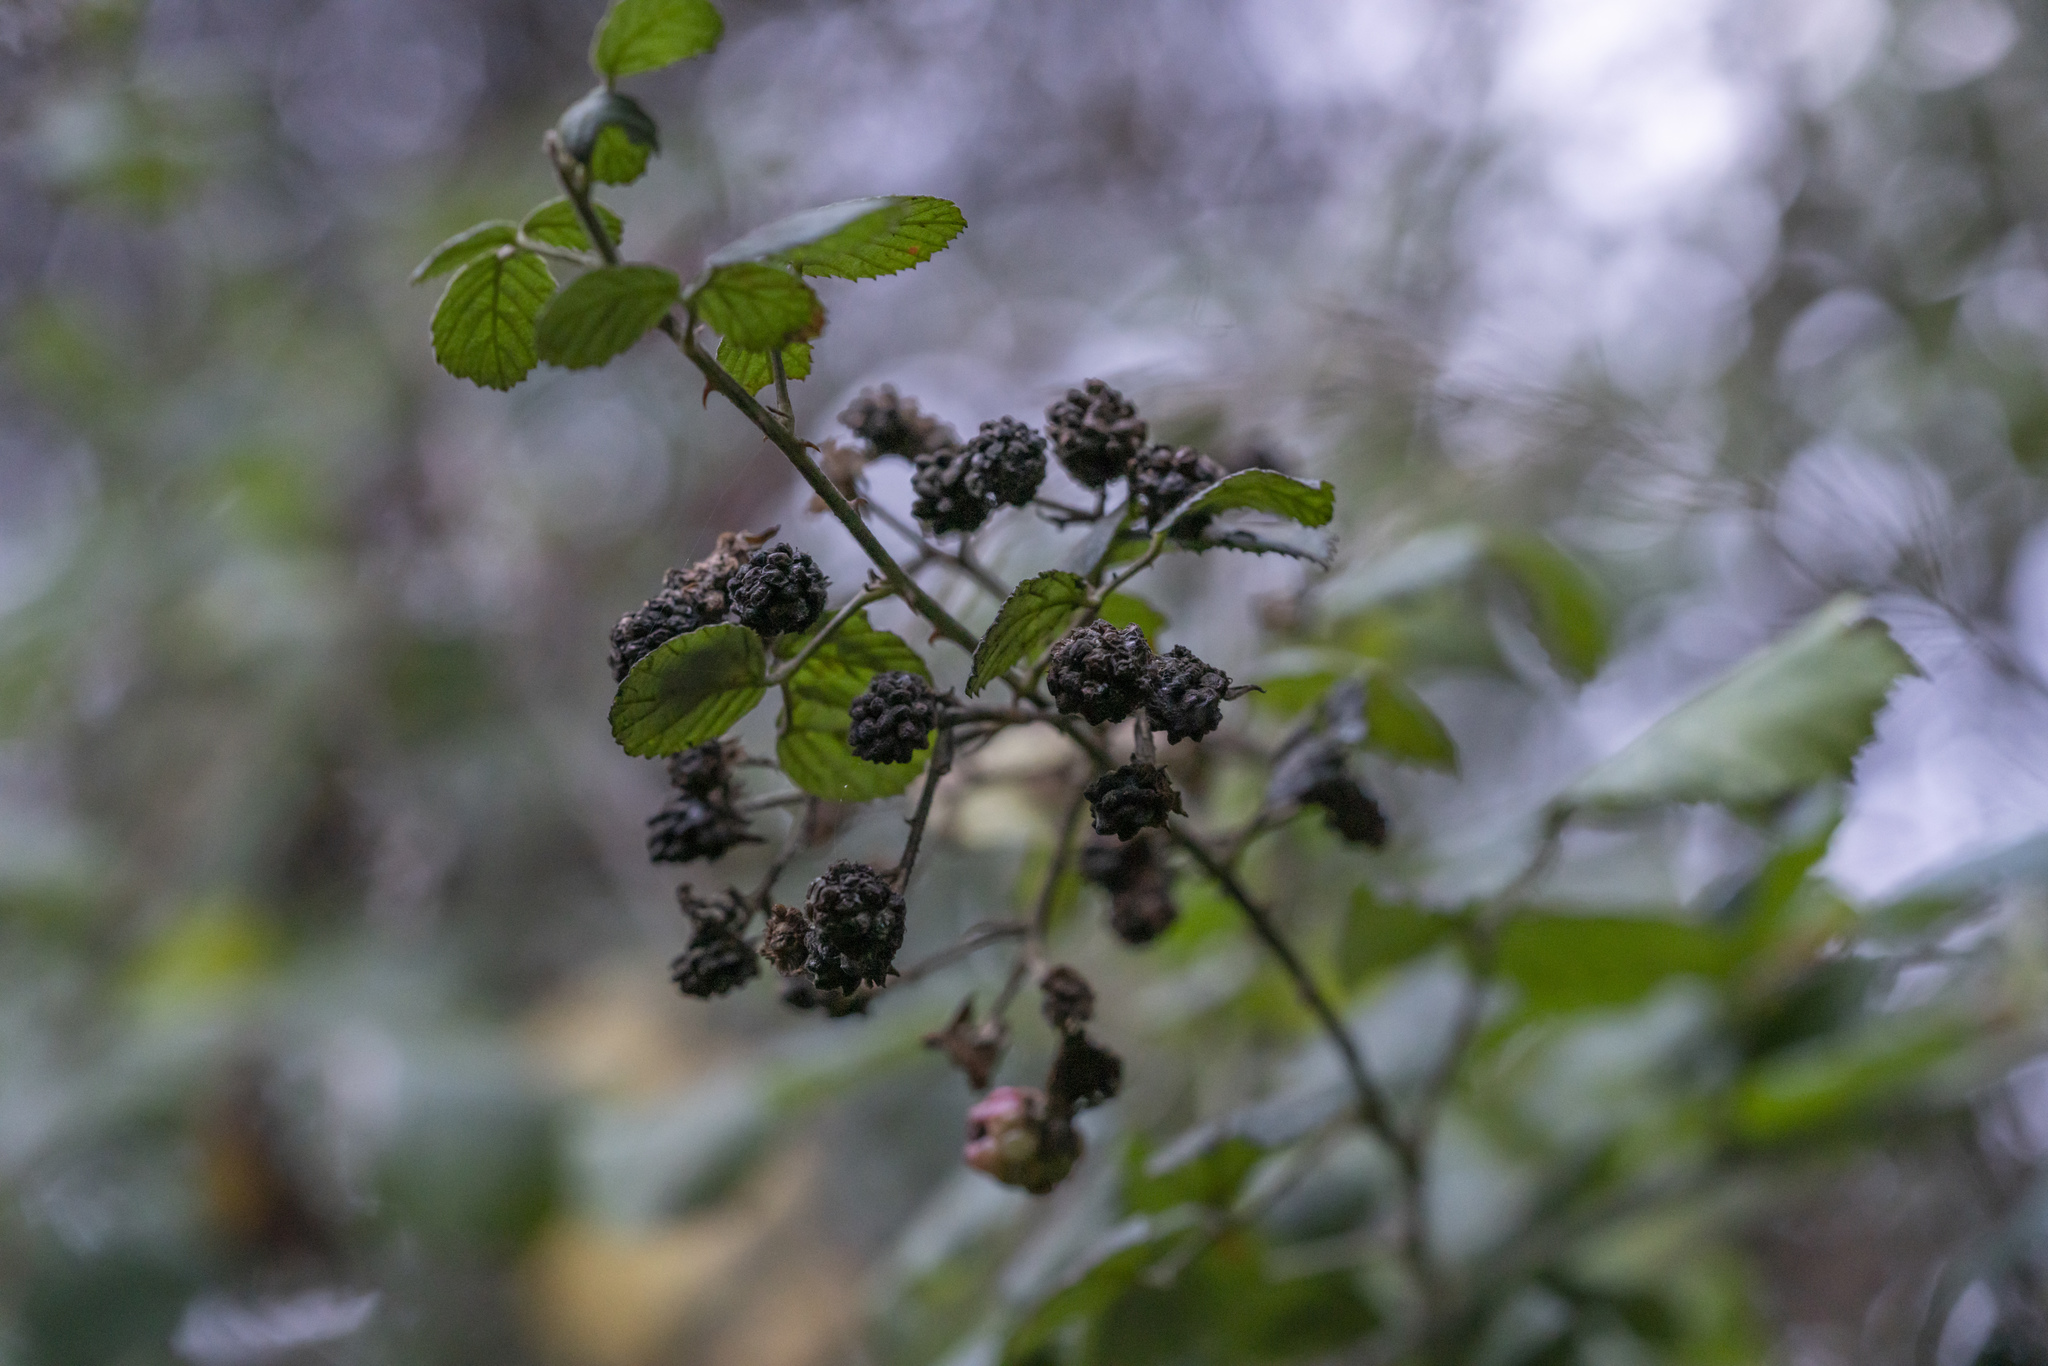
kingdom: Plantae
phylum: Tracheophyta
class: Magnoliopsida
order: Rosales
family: Rosaceae
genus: Rubus
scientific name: Rubus sanctus
